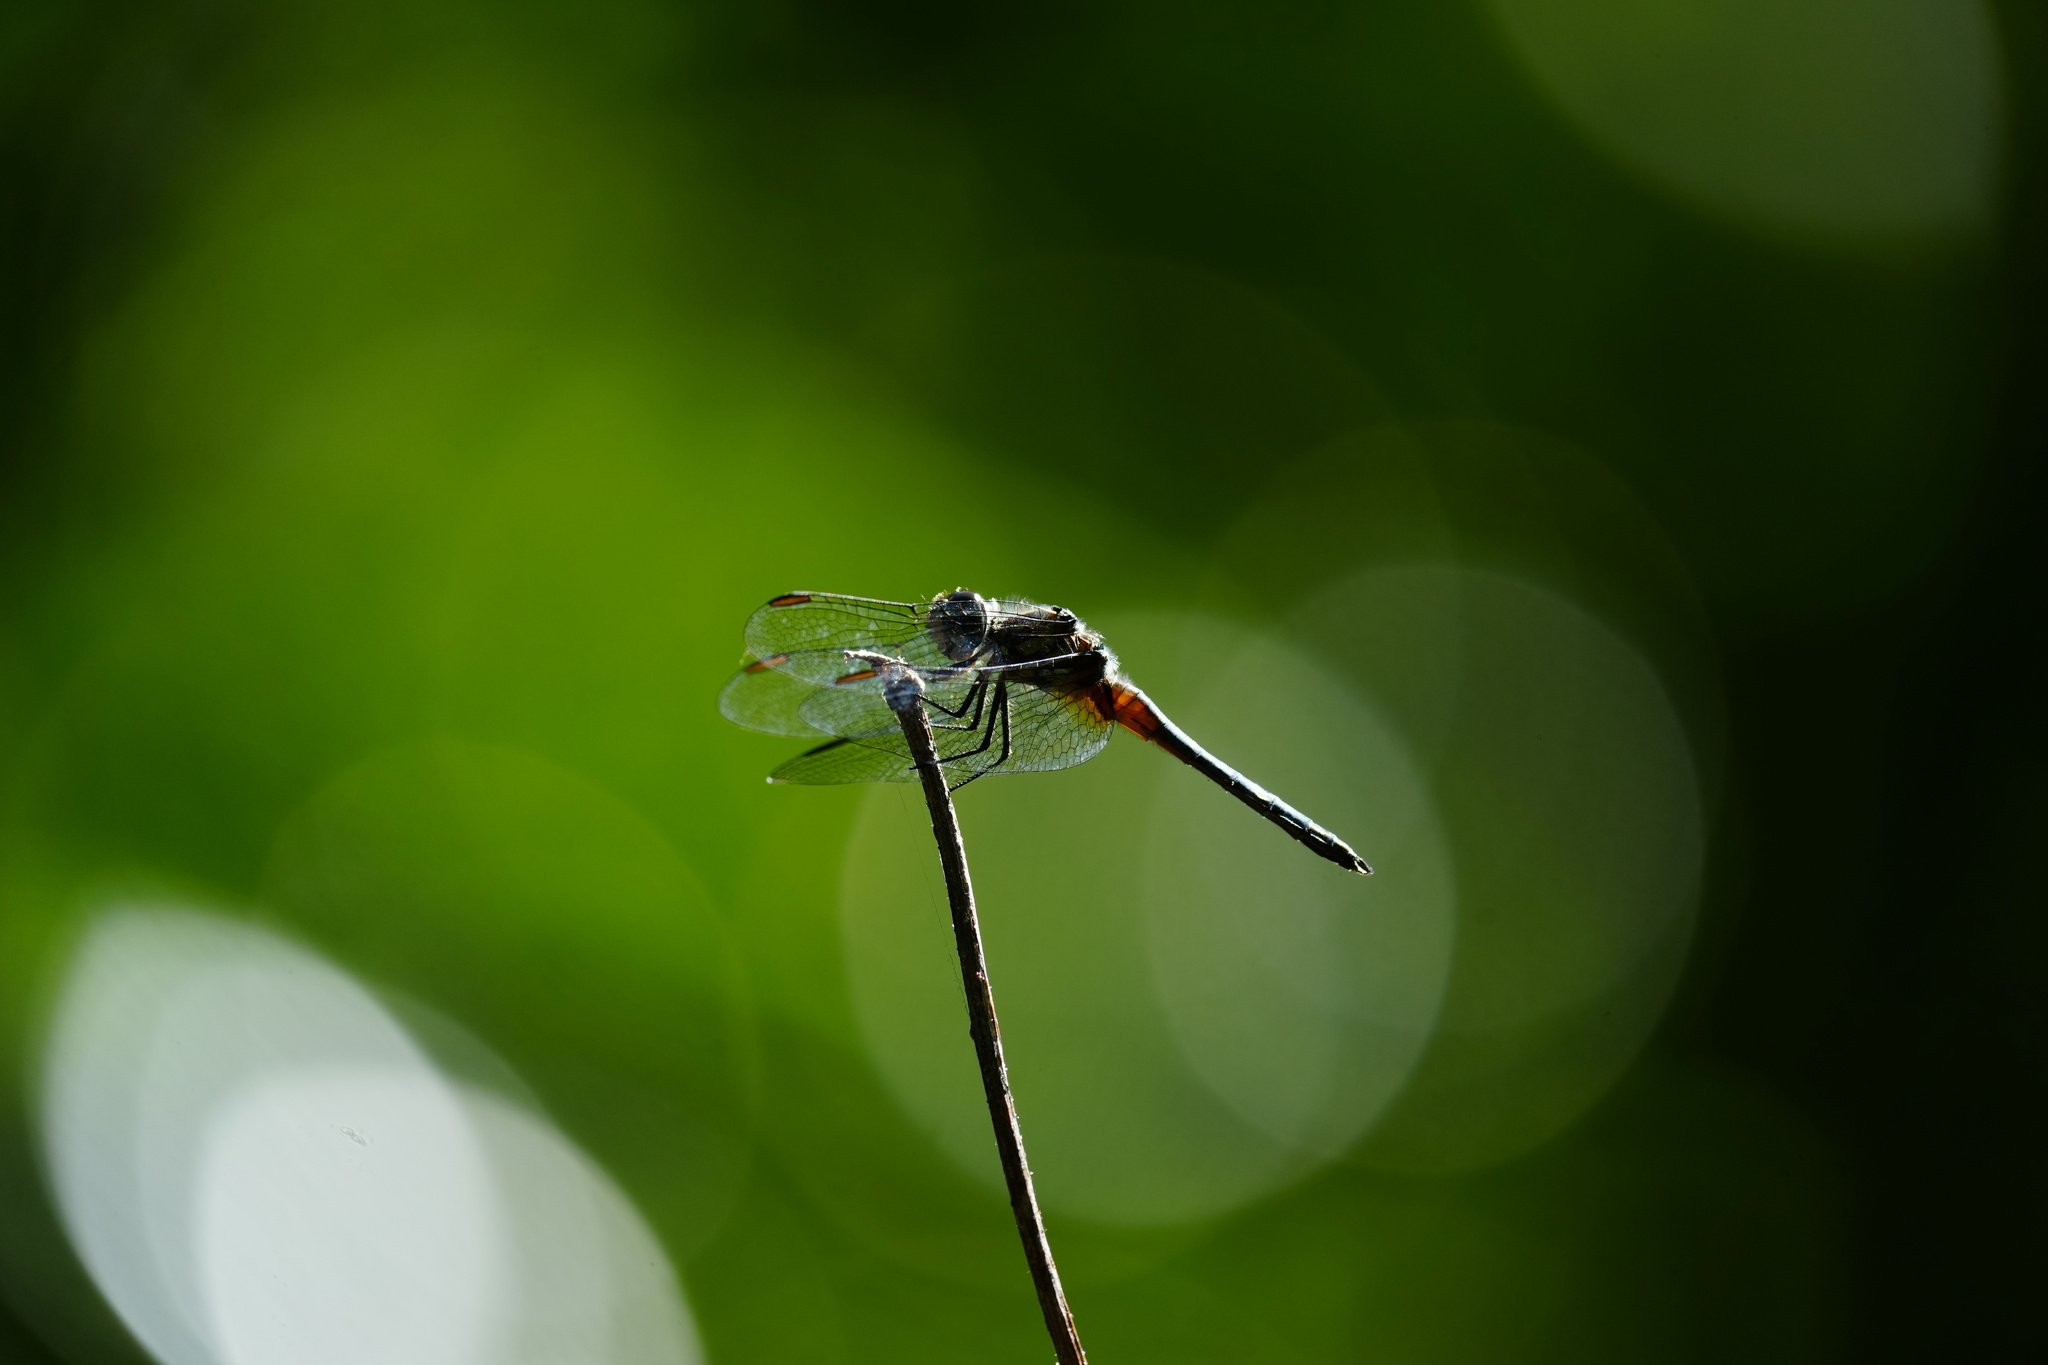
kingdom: Animalia
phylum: Arthropoda
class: Insecta
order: Odonata
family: Libellulidae
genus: Pachydiplax
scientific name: Pachydiplax longipennis
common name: Blue dasher
